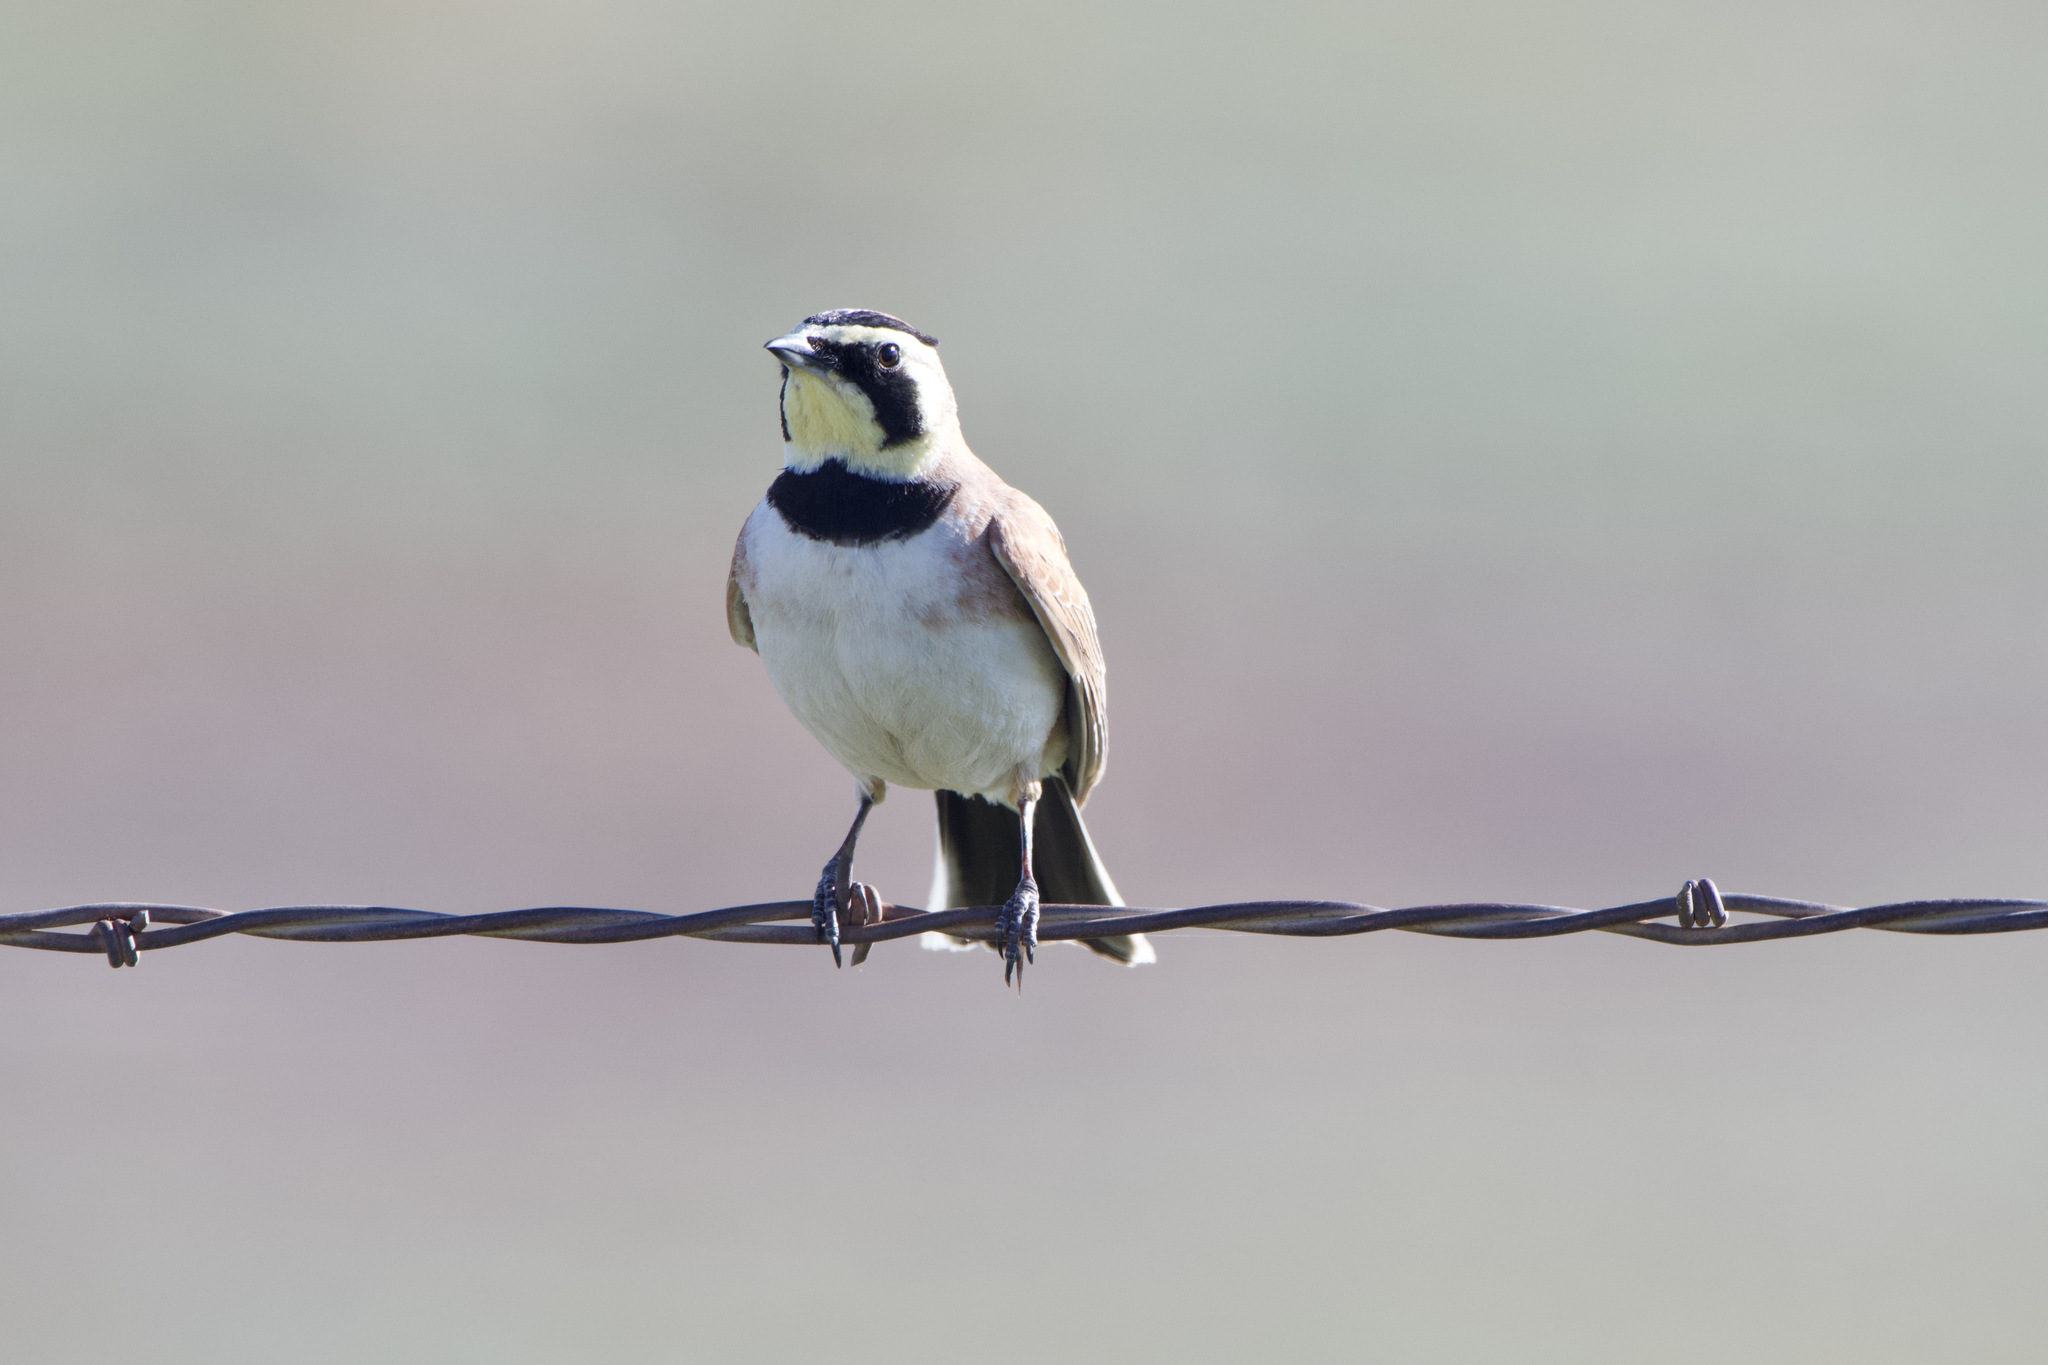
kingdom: Animalia
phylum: Chordata
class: Aves
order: Passeriformes
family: Alaudidae
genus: Eremophila
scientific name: Eremophila alpestris
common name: Horned lark
